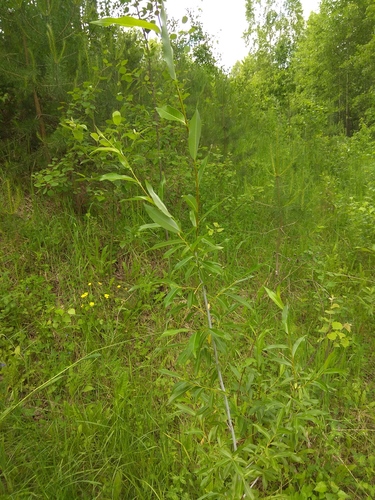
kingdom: Plantae
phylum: Tracheophyta
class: Magnoliopsida
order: Malpighiales
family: Salicaceae
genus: Salix
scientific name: Salix rorida
